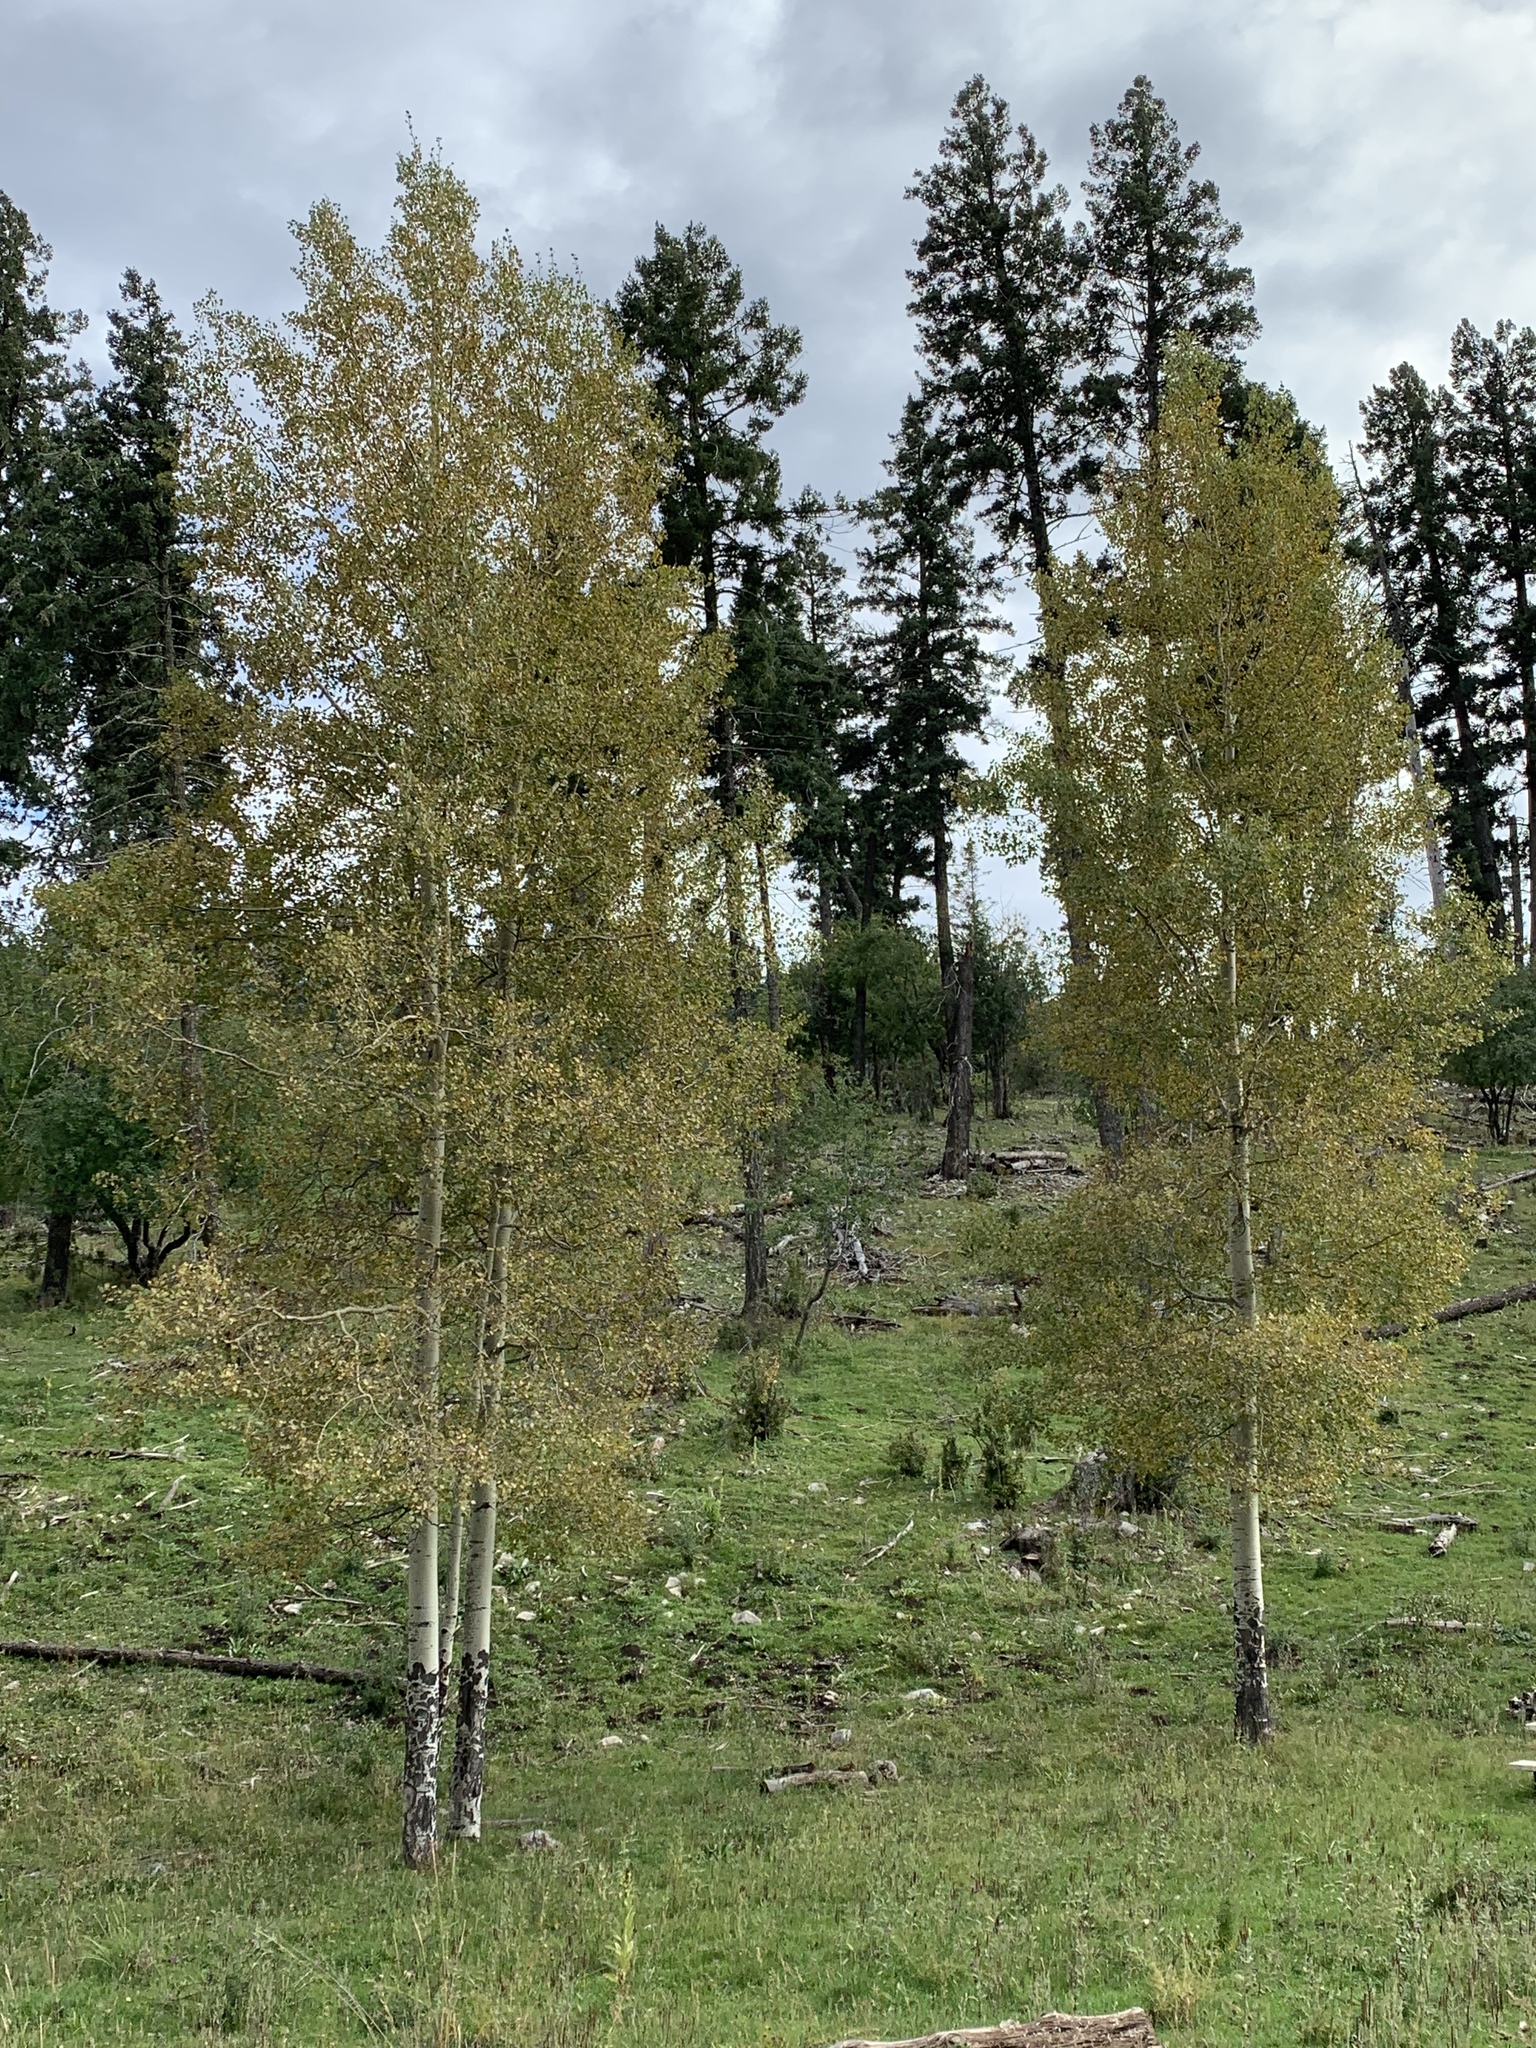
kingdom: Plantae
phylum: Tracheophyta
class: Magnoliopsida
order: Malpighiales
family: Salicaceae
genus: Populus
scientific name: Populus tremuloides
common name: Quaking aspen
